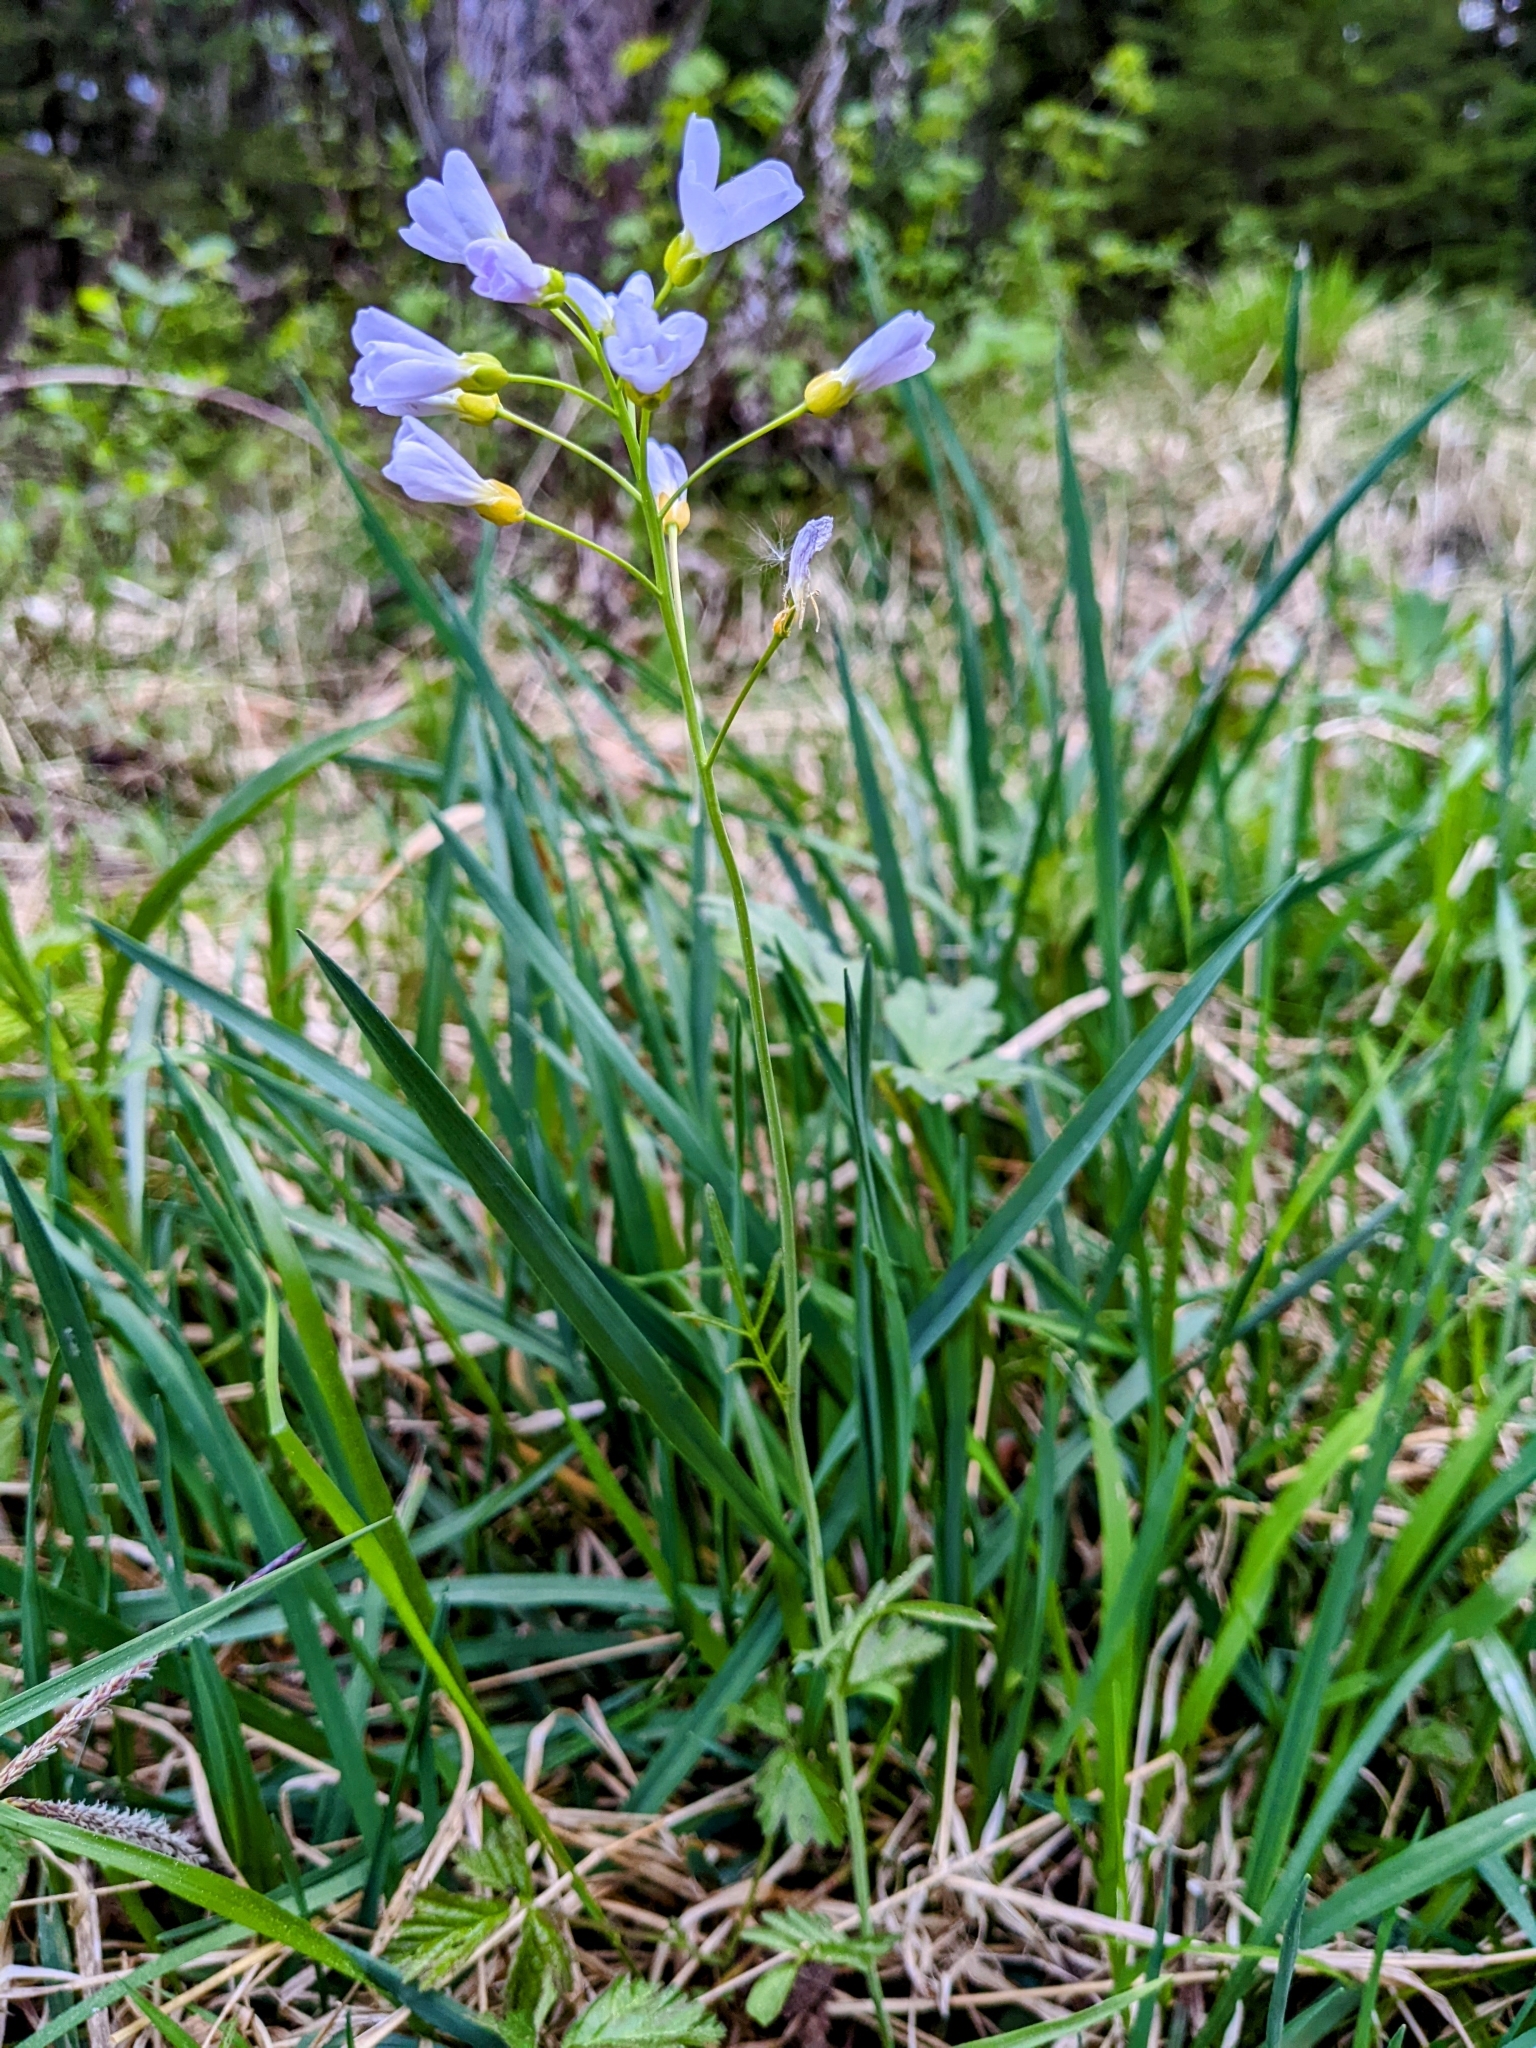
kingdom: Plantae
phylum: Tracheophyta
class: Magnoliopsida
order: Brassicales
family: Brassicaceae
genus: Cardamine
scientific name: Cardamine pratensis
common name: Cuckoo flower
